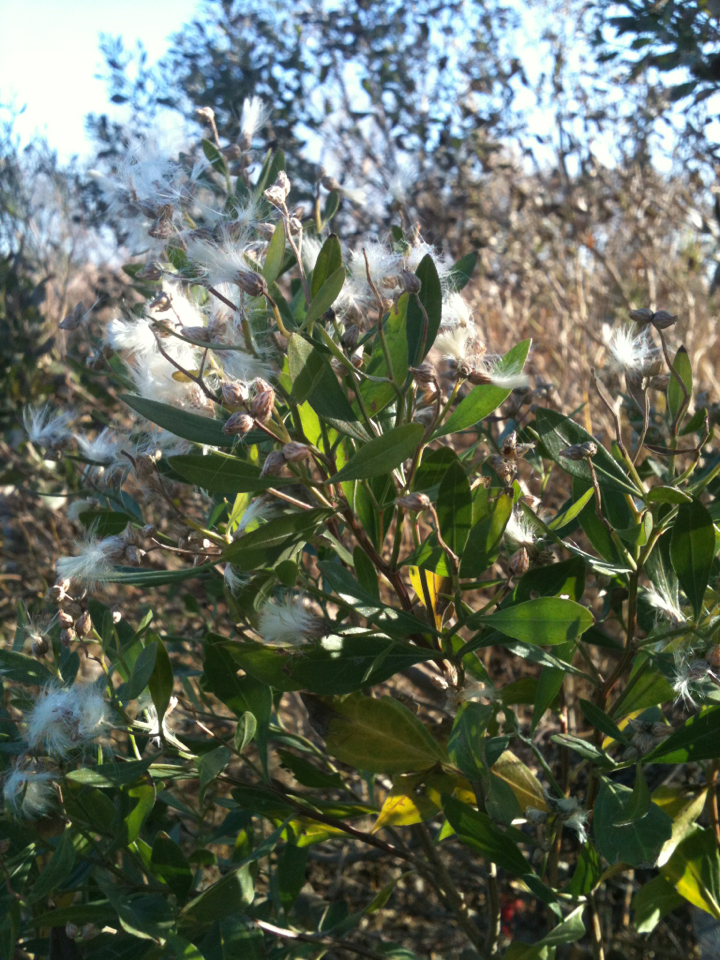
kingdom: Plantae
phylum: Tracheophyta
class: Magnoliopsida
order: Asterales
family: Asteraceae
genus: Baccharis
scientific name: Baccharis halimifolia
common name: Eastern baccharis
